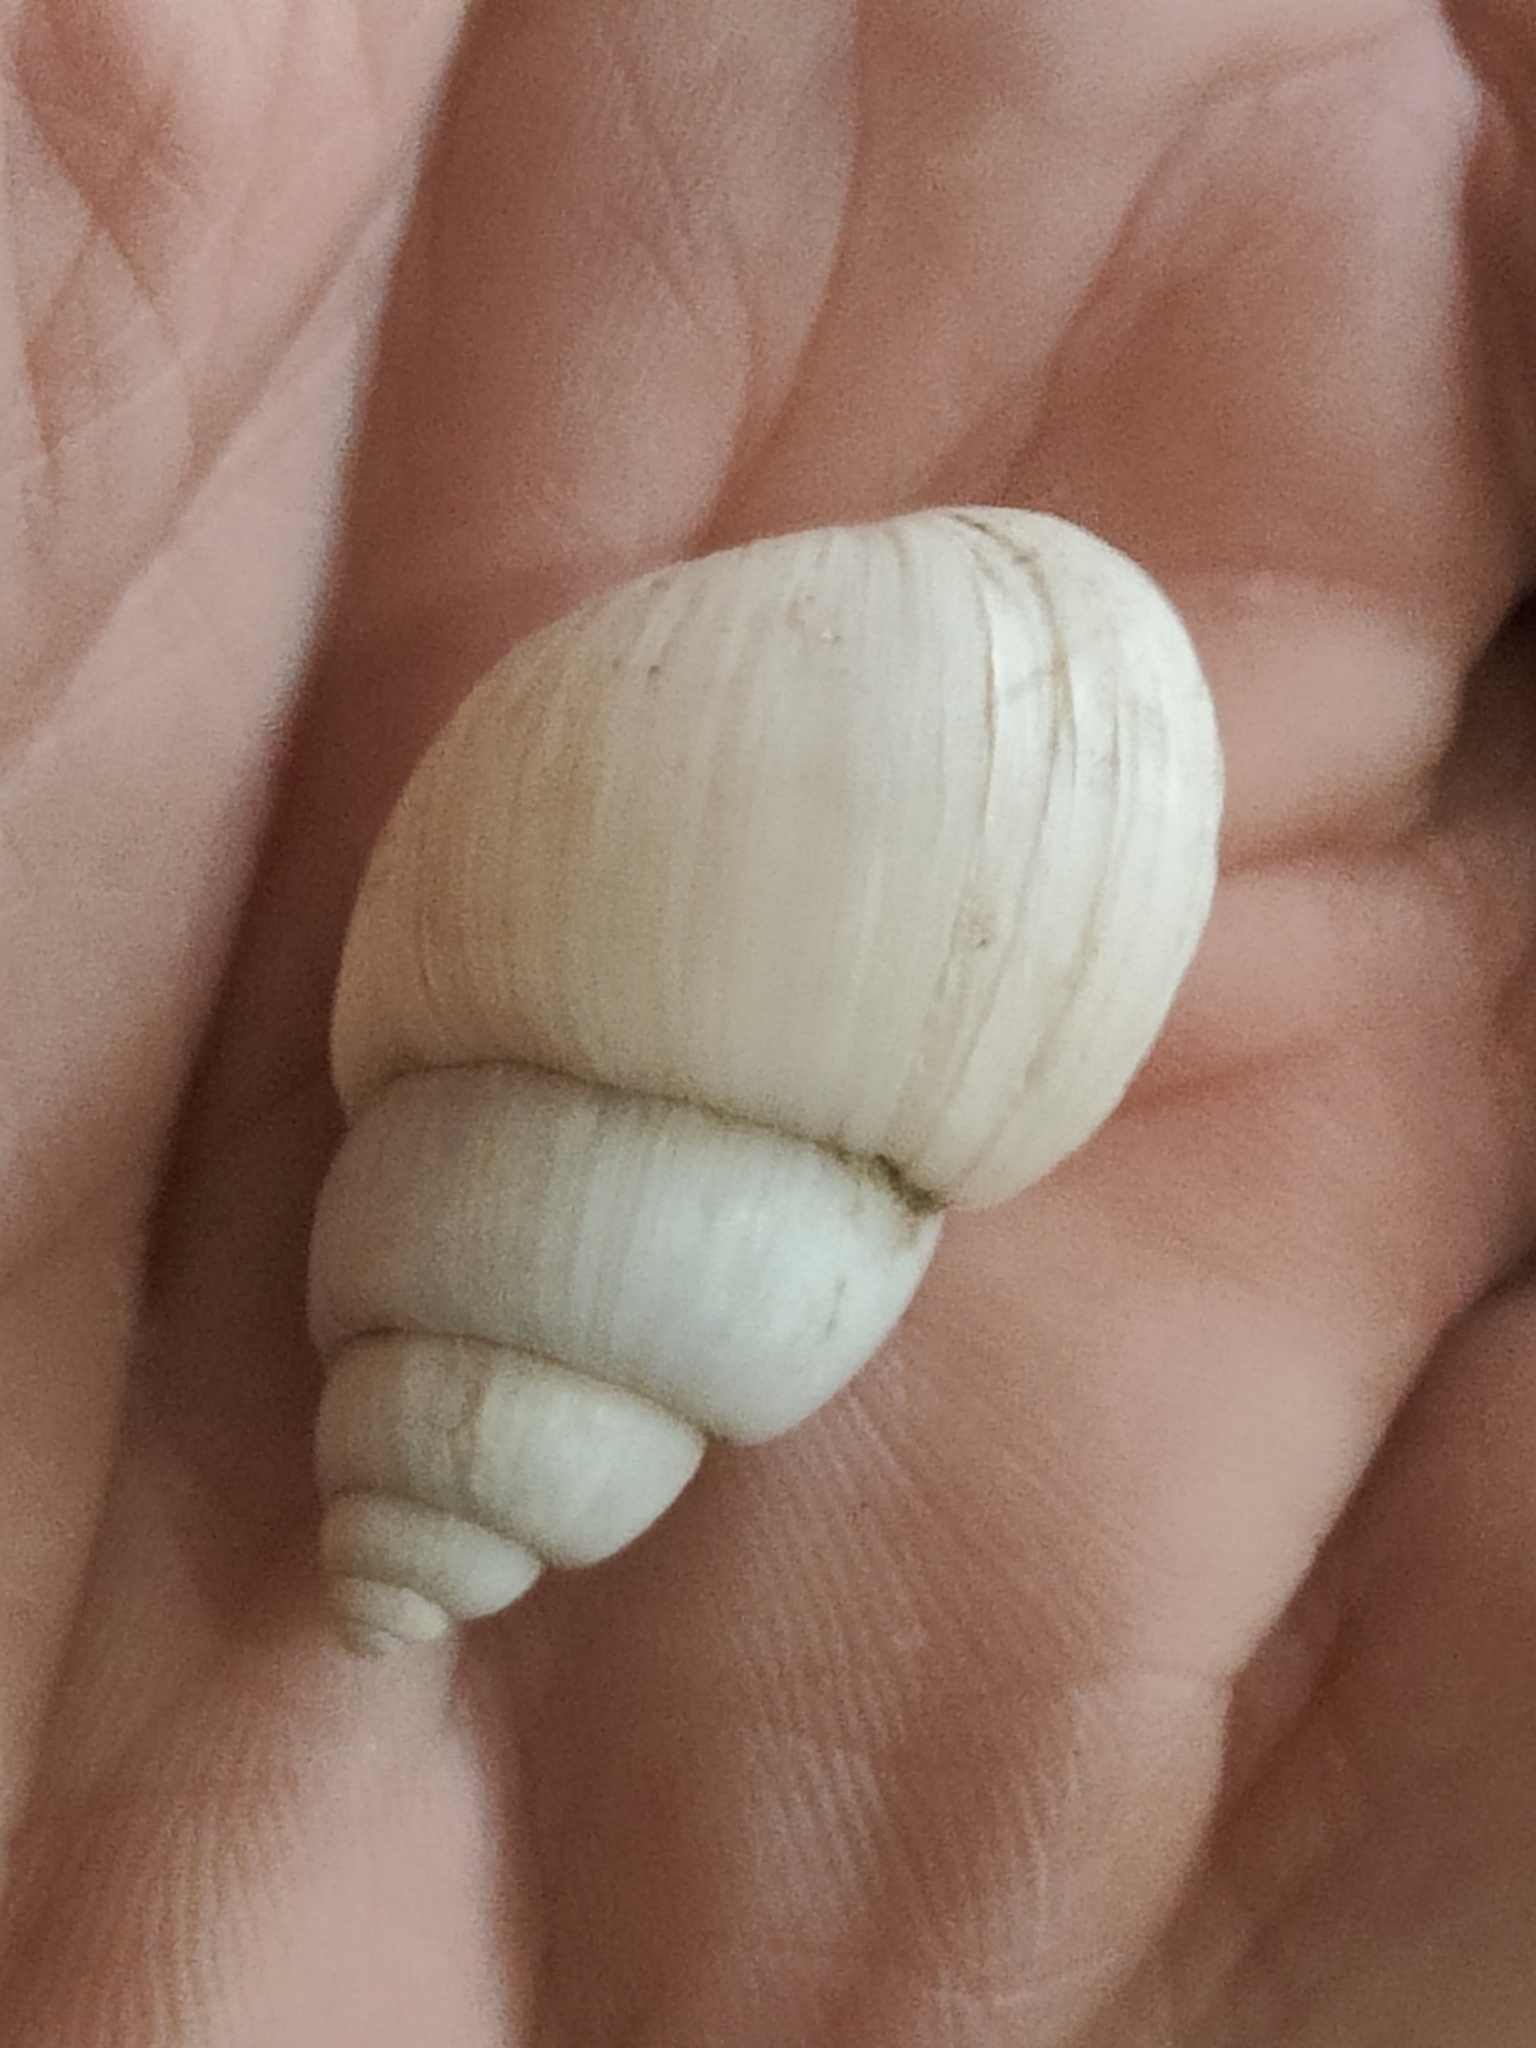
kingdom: Animalia
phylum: Mollusca
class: Gastropoda
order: Architaenioglossa
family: Viviparidae
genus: Campeloma
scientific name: Campeloma decisum
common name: Pointed campeloma
